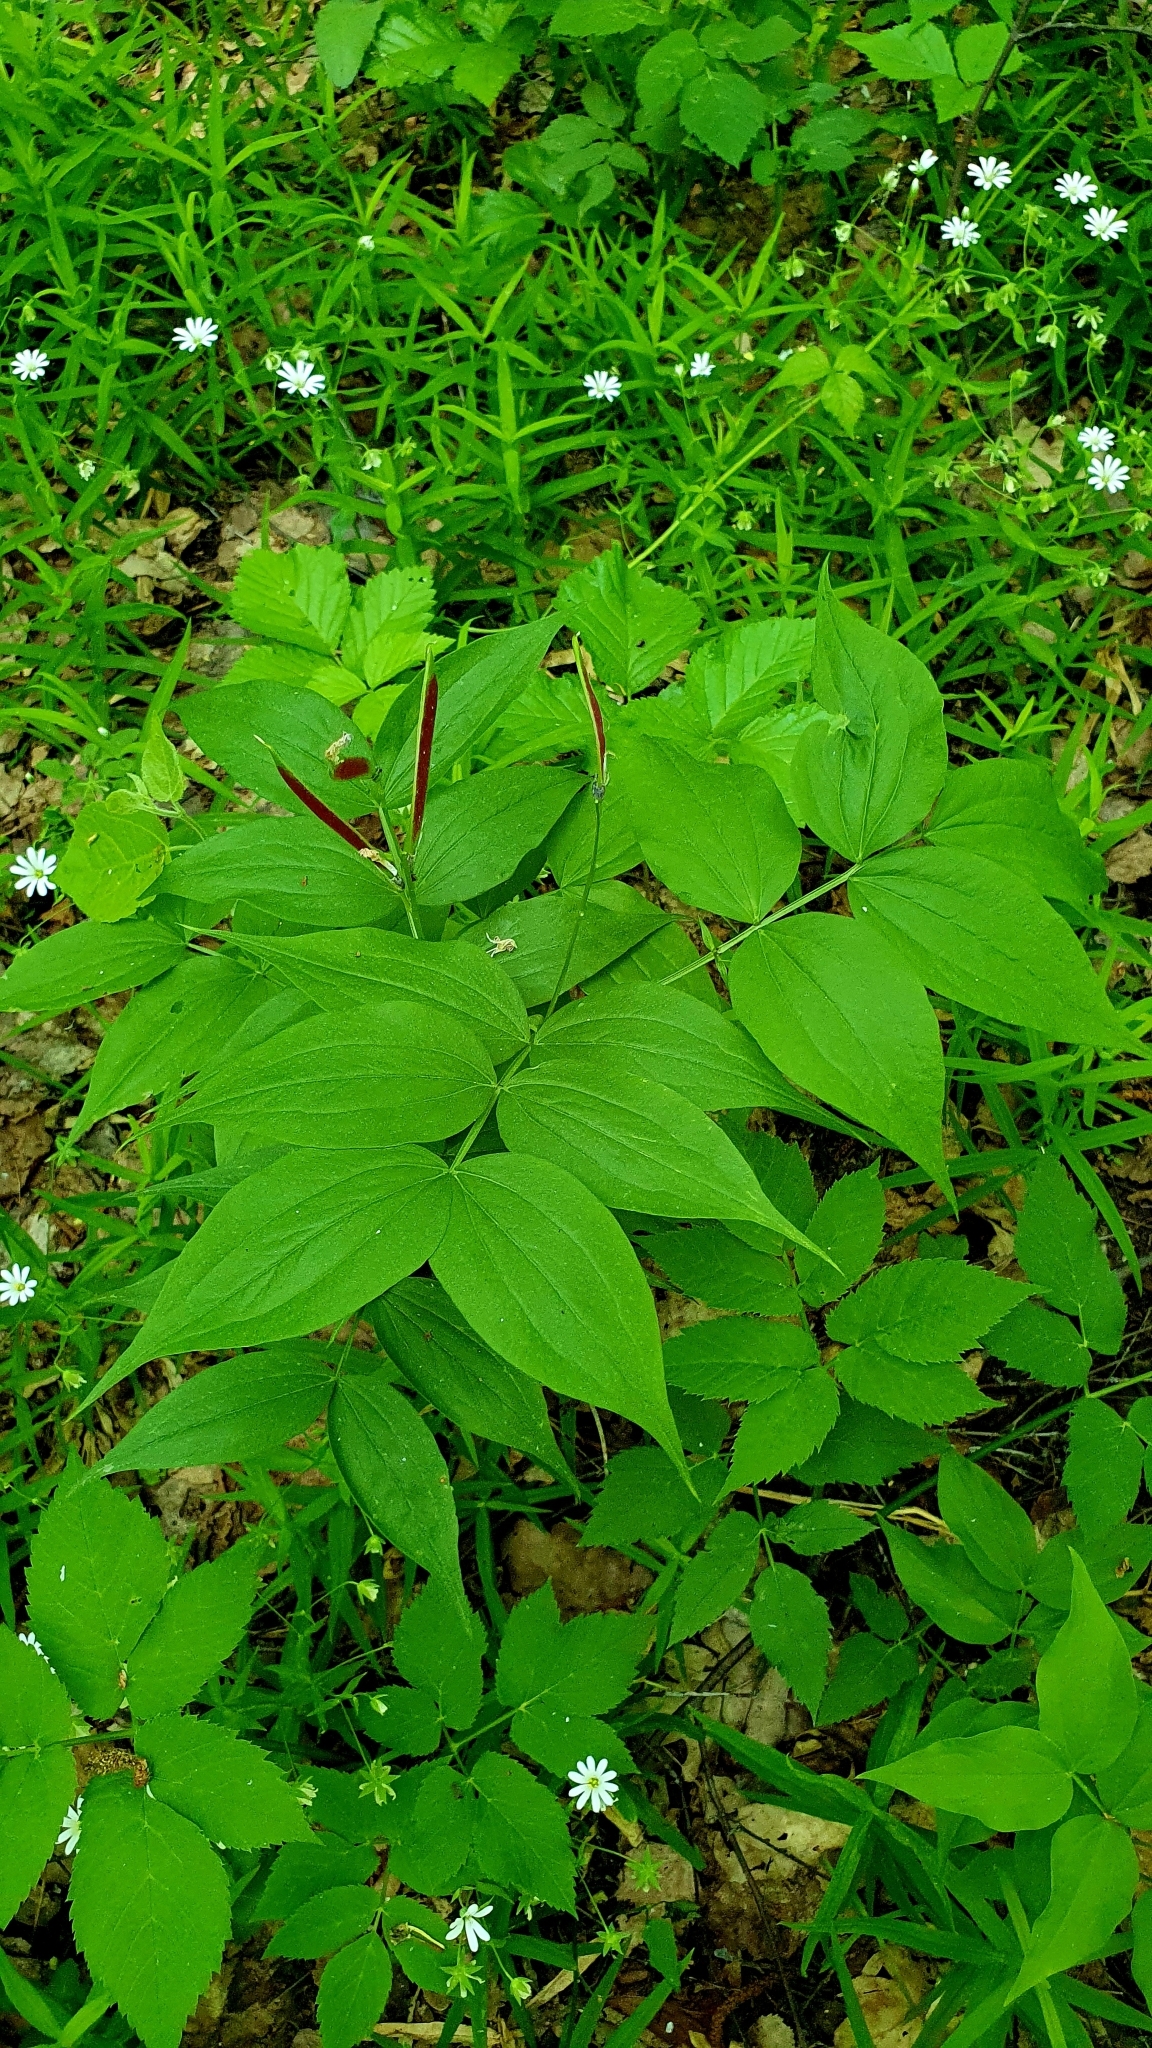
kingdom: Plantae
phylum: Tracheophyta
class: Magnoliopsida
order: Fabales
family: Fabaceae
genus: Lathyrus
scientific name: Lathyrus vernus
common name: Spring pea
